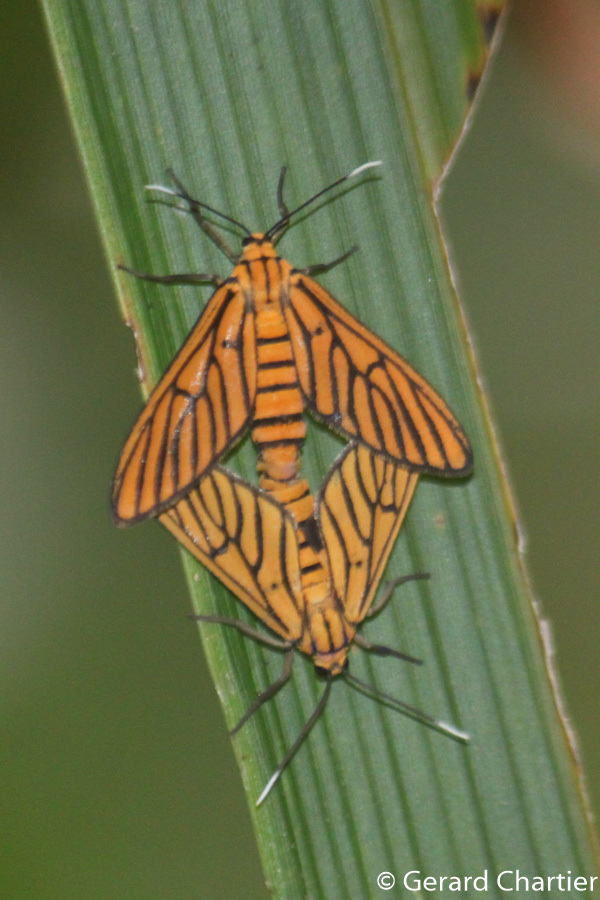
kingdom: Animalia
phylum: Arthropoda
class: Insecta
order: Lepidoptera
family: Erebidae
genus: Amata
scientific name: Amata tigrina
